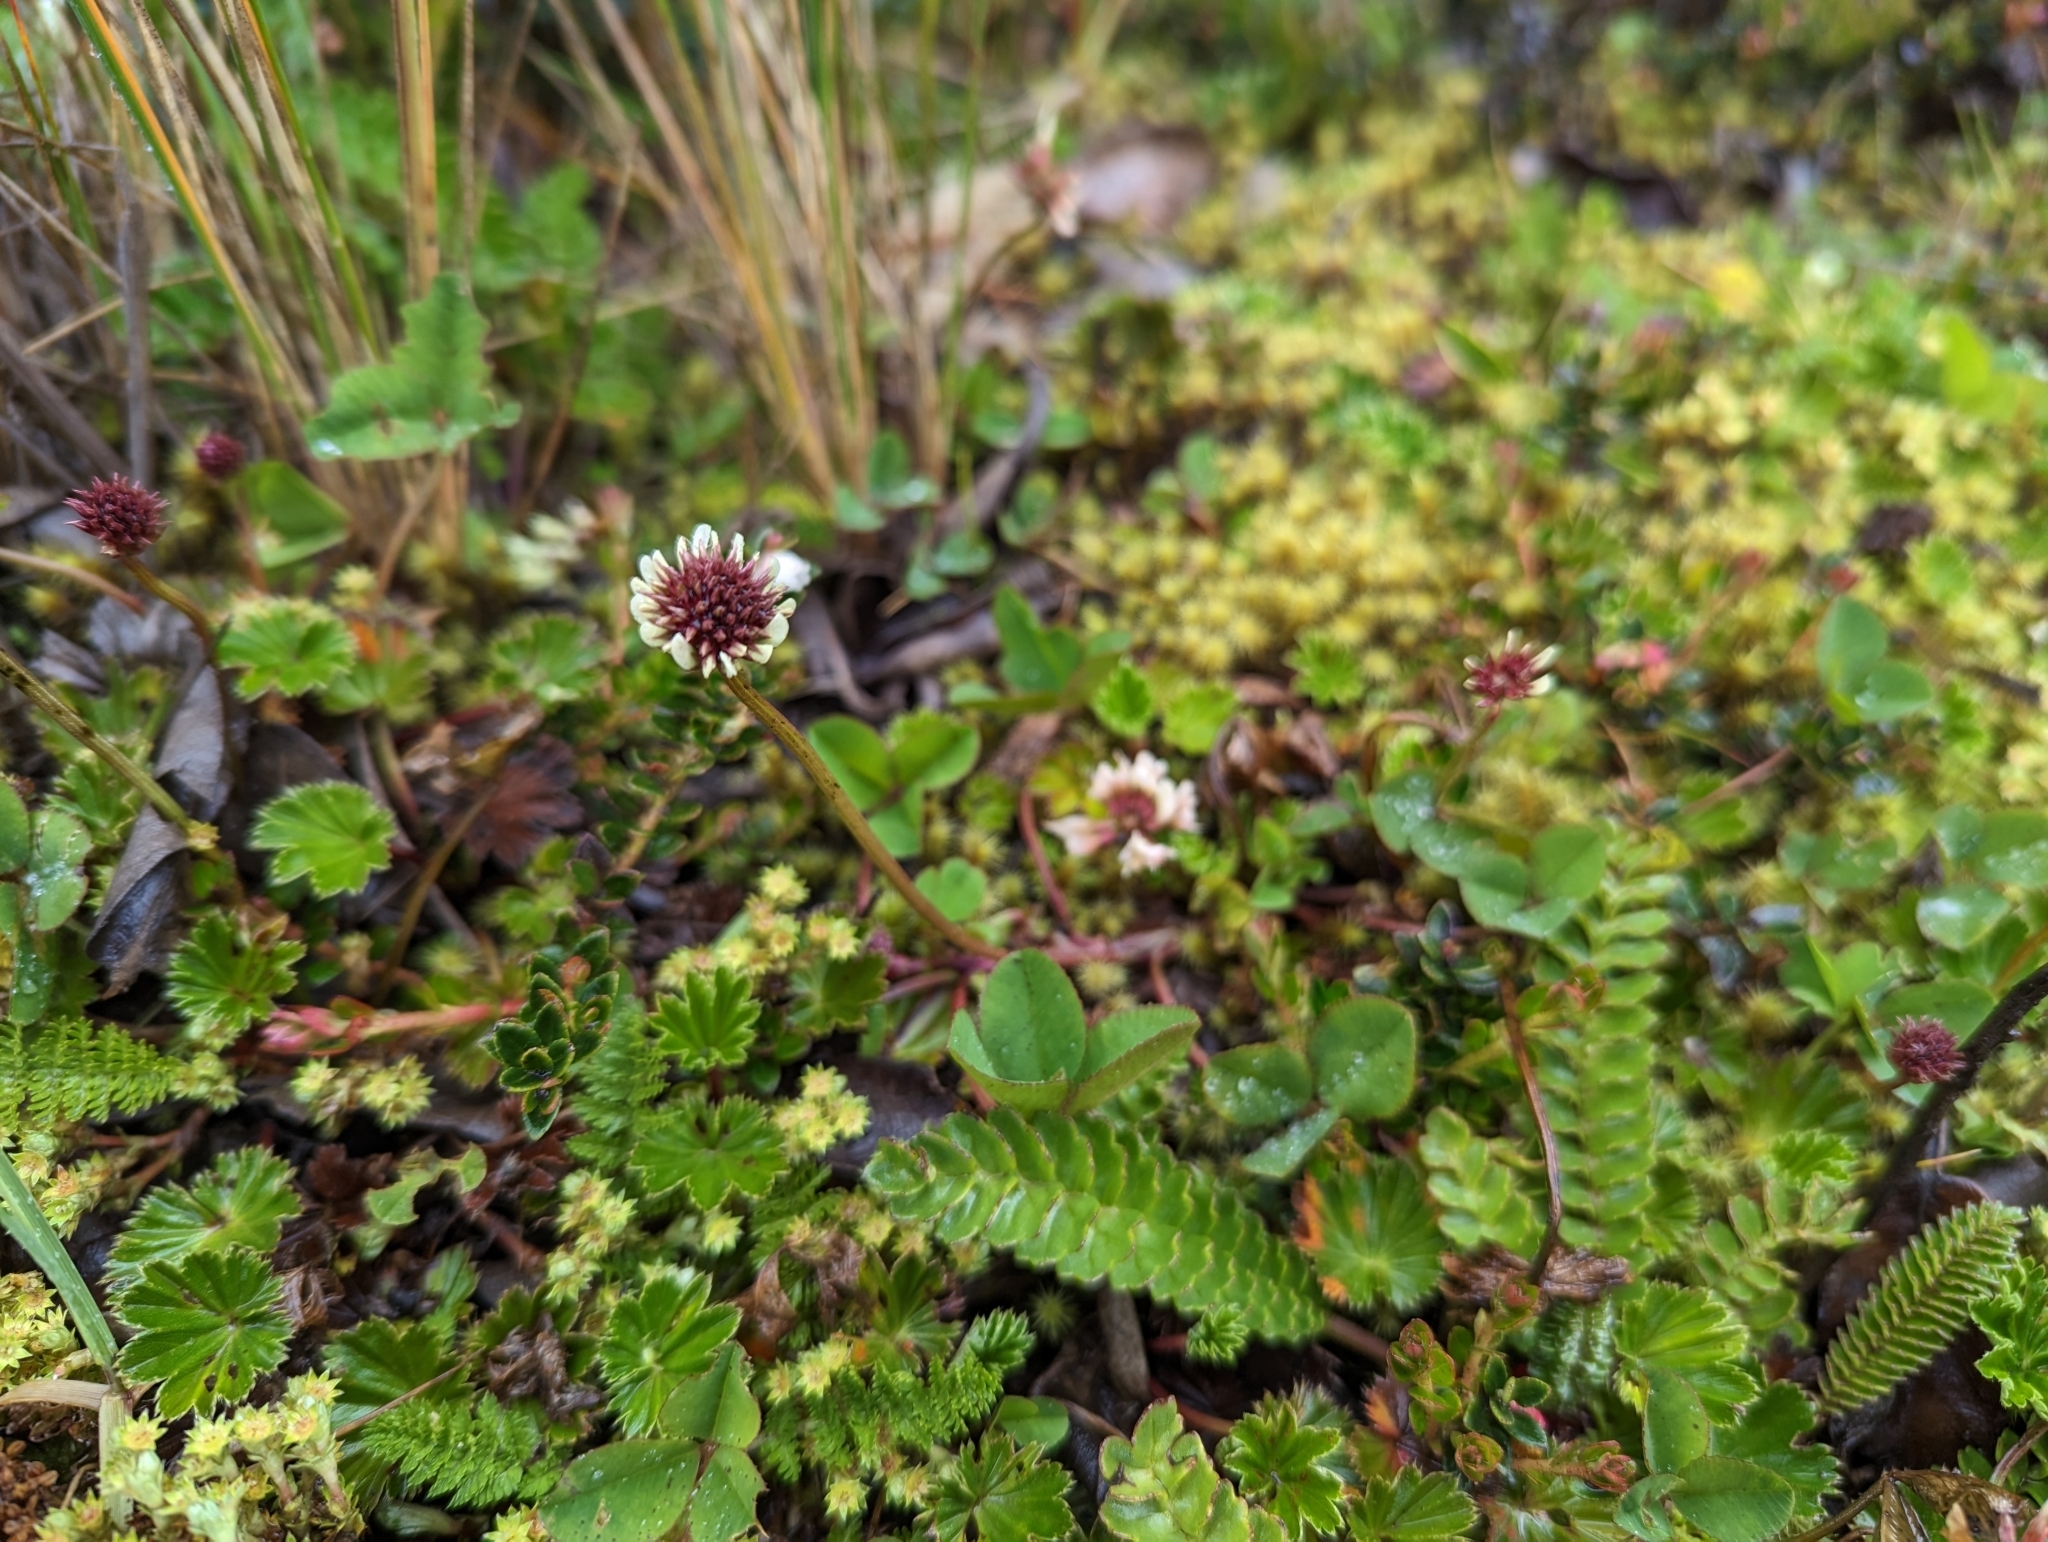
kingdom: Plantae
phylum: Tracheophyta
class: Magnoliopsida
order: Fabales
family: Fabaceae
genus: Trifolium
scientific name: Trifolium repens
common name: White clover
